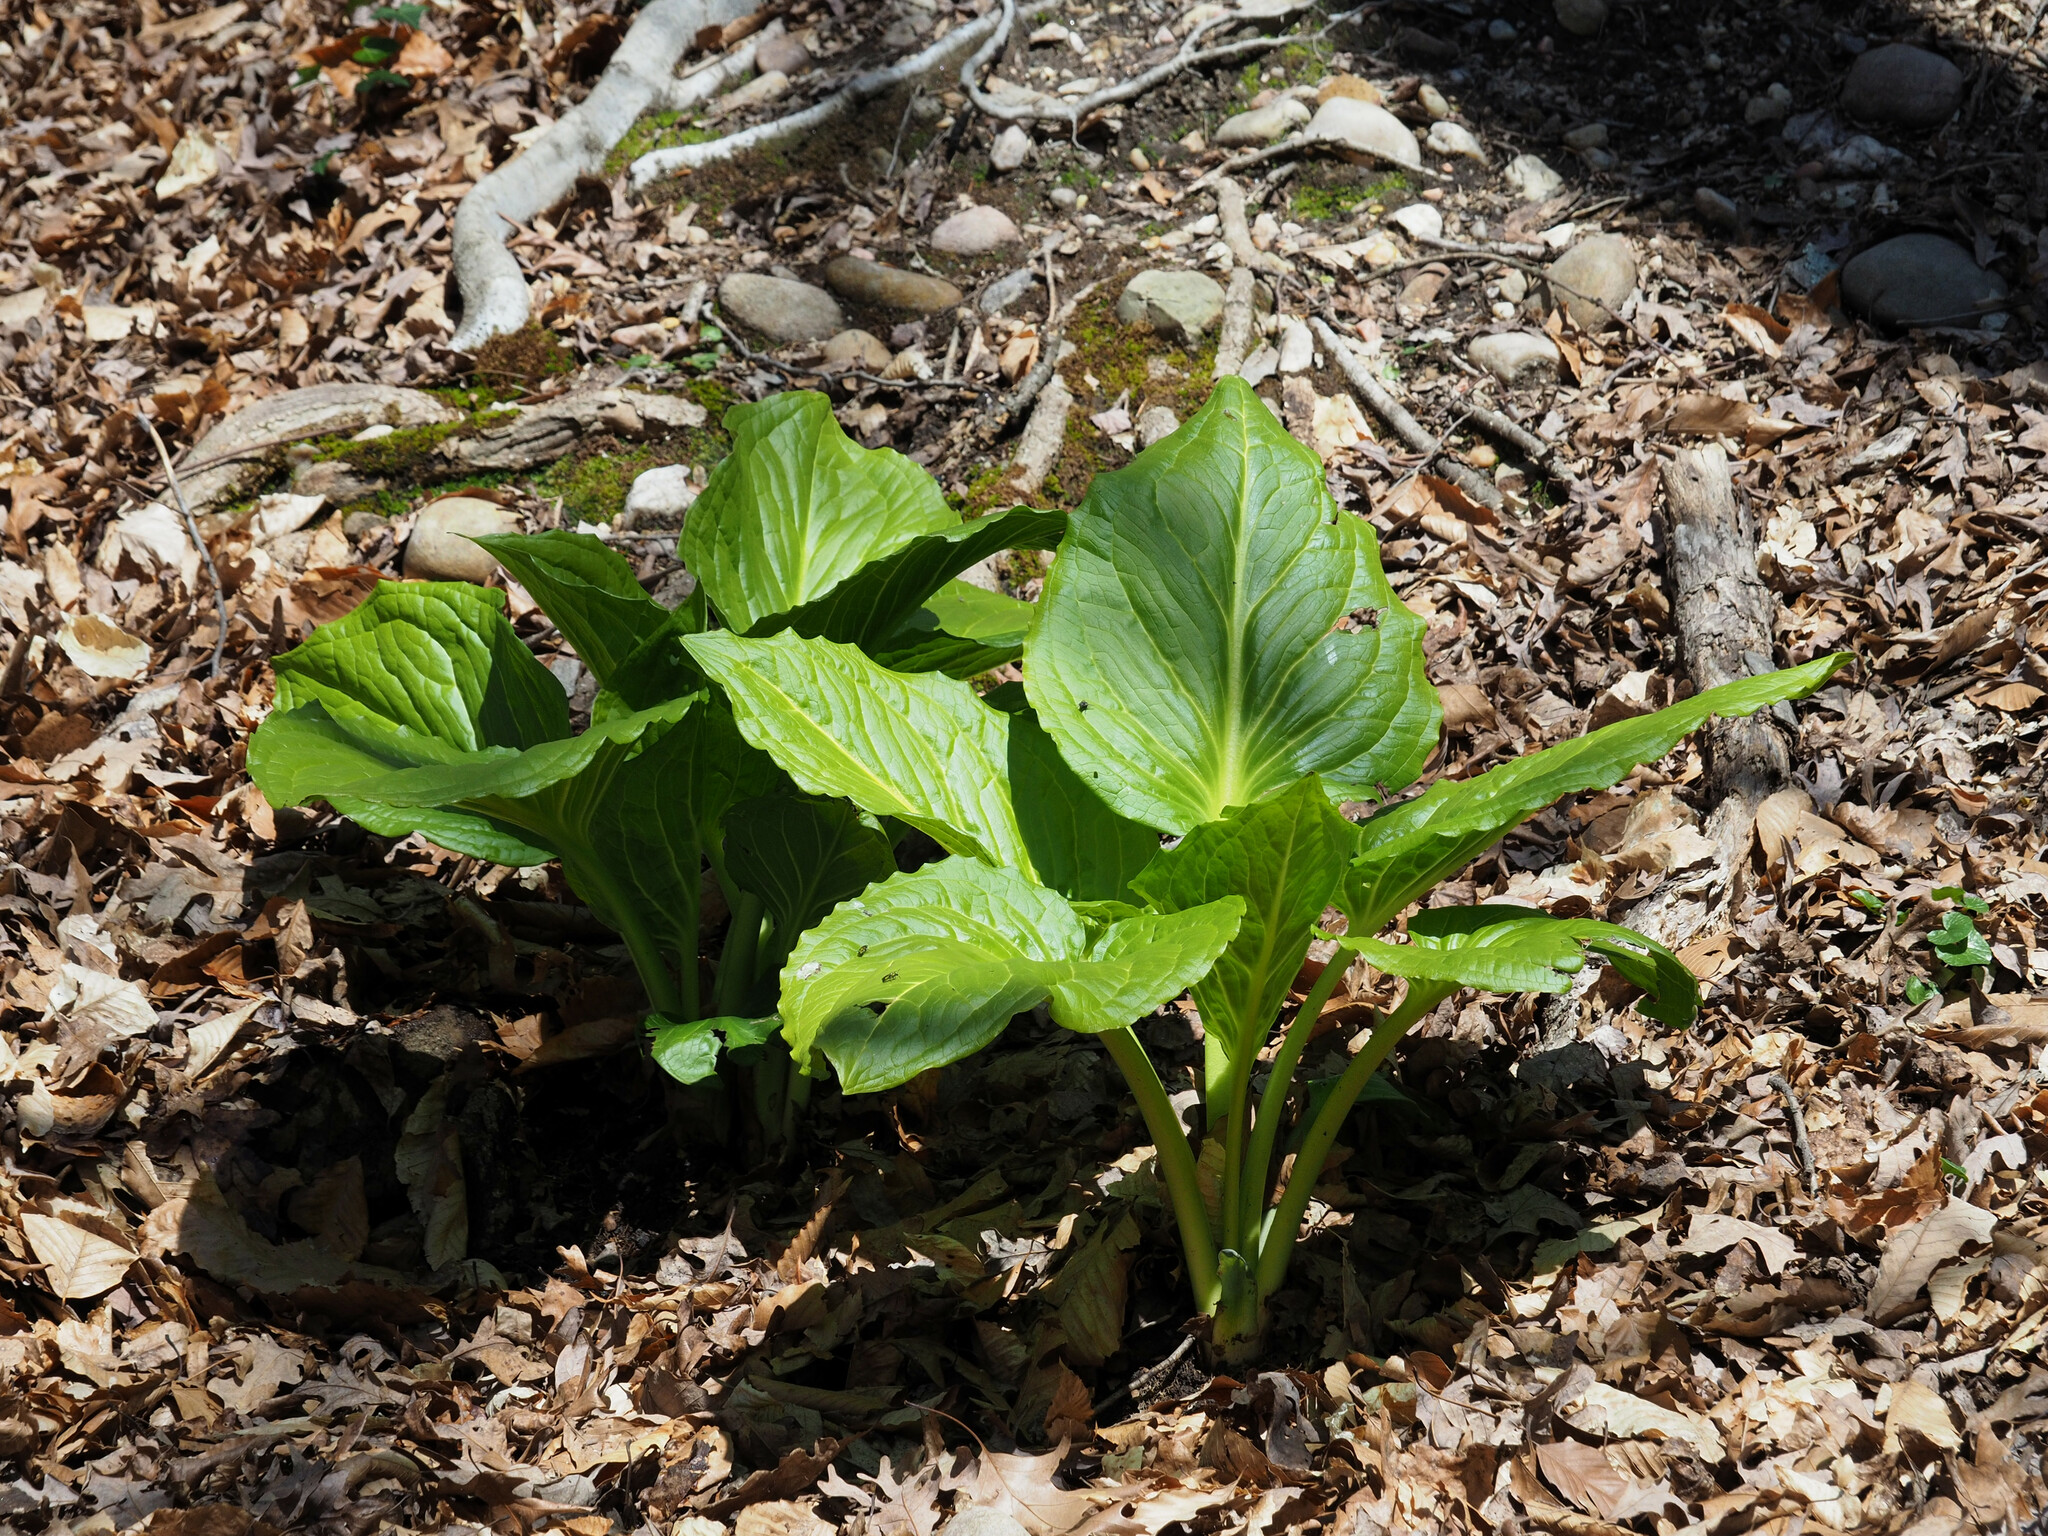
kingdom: Plantae
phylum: Tracheophyta
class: Liliopsida
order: Alismatales
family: Araceae
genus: Symplocarpus
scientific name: Symplocarpus foetidus
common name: Eastern skunk cabbage
